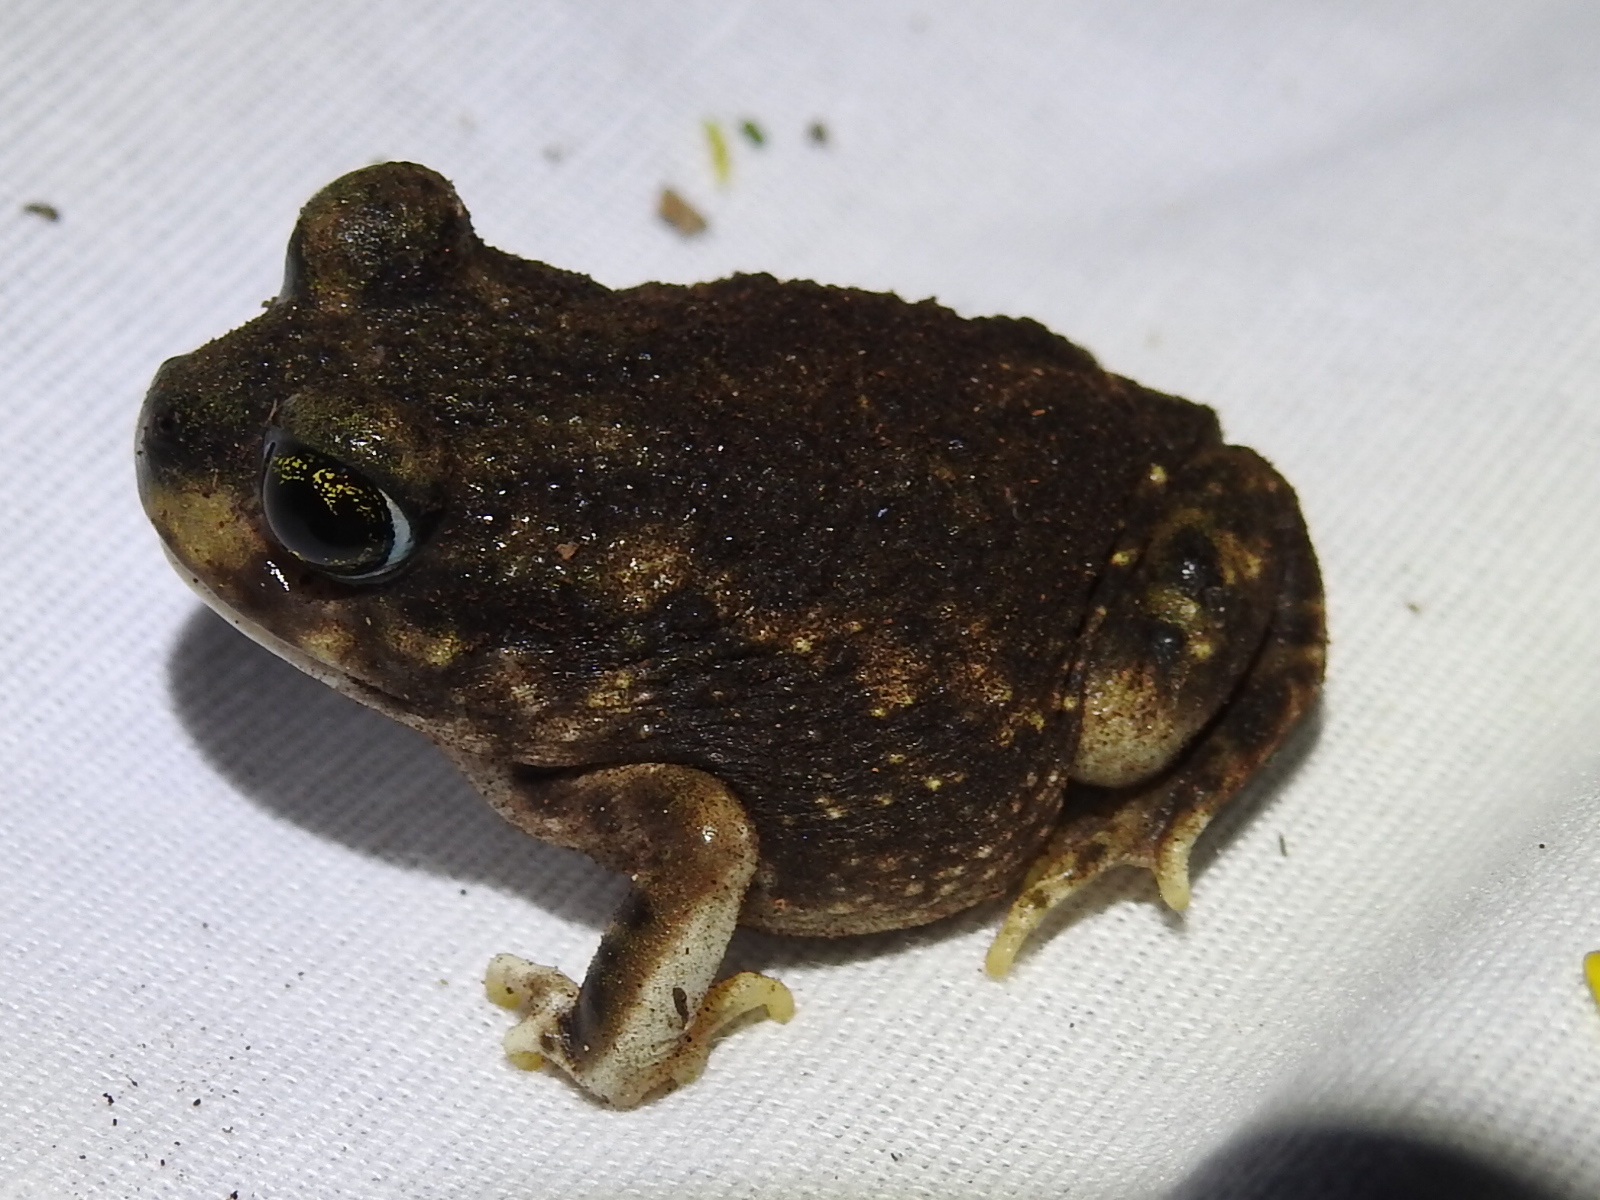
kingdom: Animalia
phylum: Chordata
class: Amphibia
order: Anura
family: Scaphiopodidae
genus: Scaphiopus
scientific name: Scaphiopus hurterii
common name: Hurter's spadefoot toad
